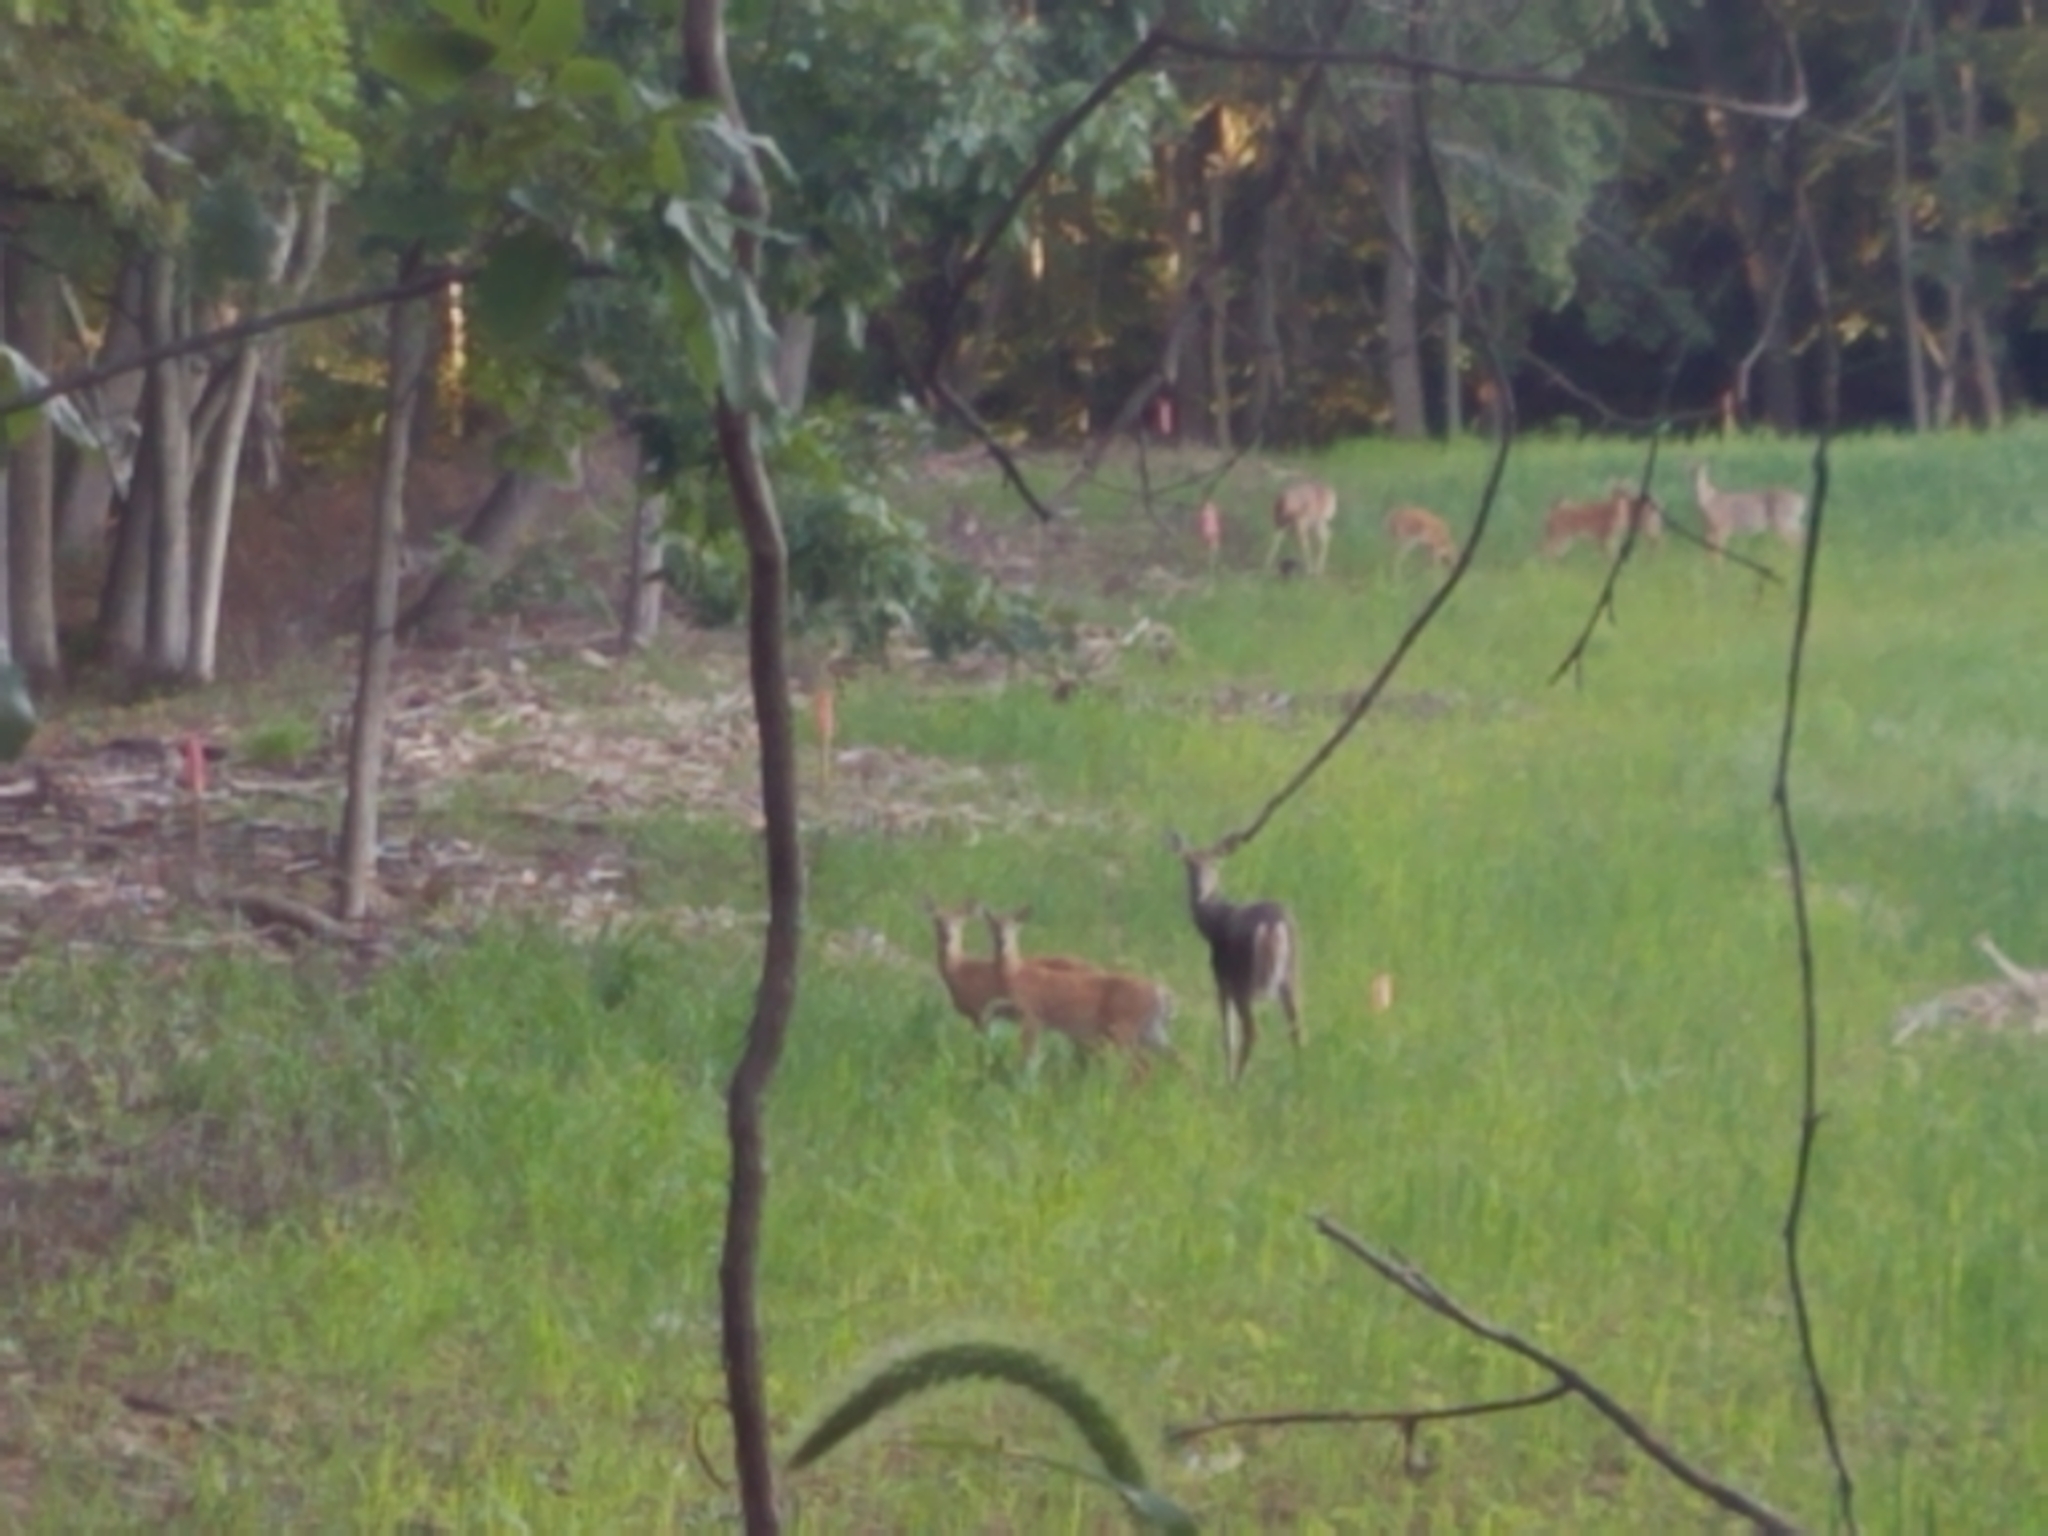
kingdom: Animalia
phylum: Chordata
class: Mammalia
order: Artiodactyla
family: Cervidae
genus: Odocoileus
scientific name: Odocoileus virginianus
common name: White-tailed deer
